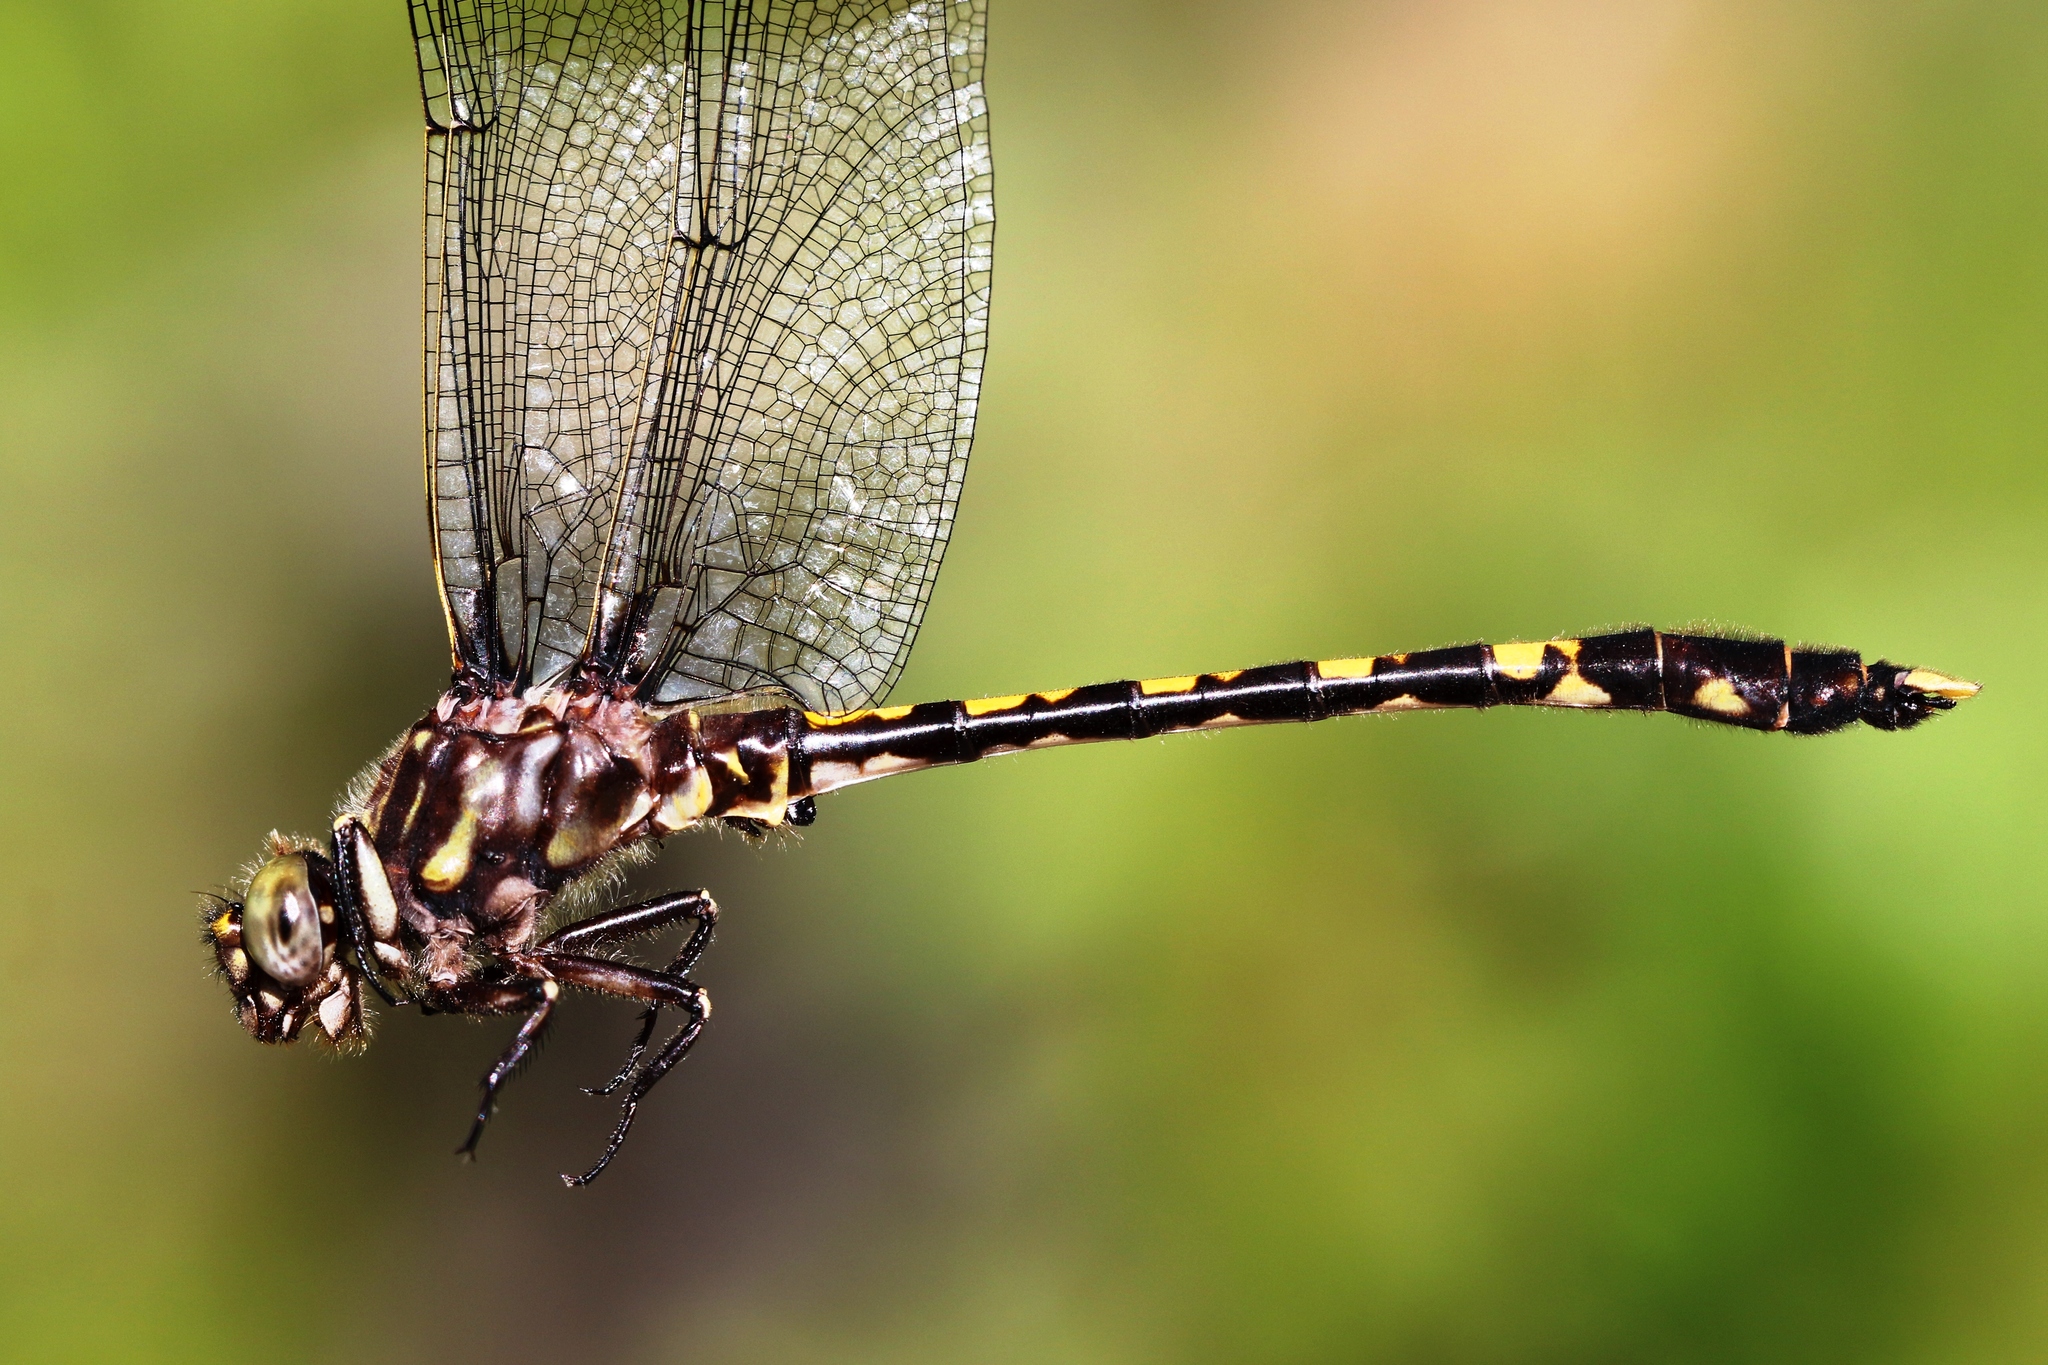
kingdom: Animalia
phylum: Arthropoda
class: Insecta
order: Odonata
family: Gomphidae
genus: Progomphus
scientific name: Progomphus obscurus
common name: Common sanddragon
